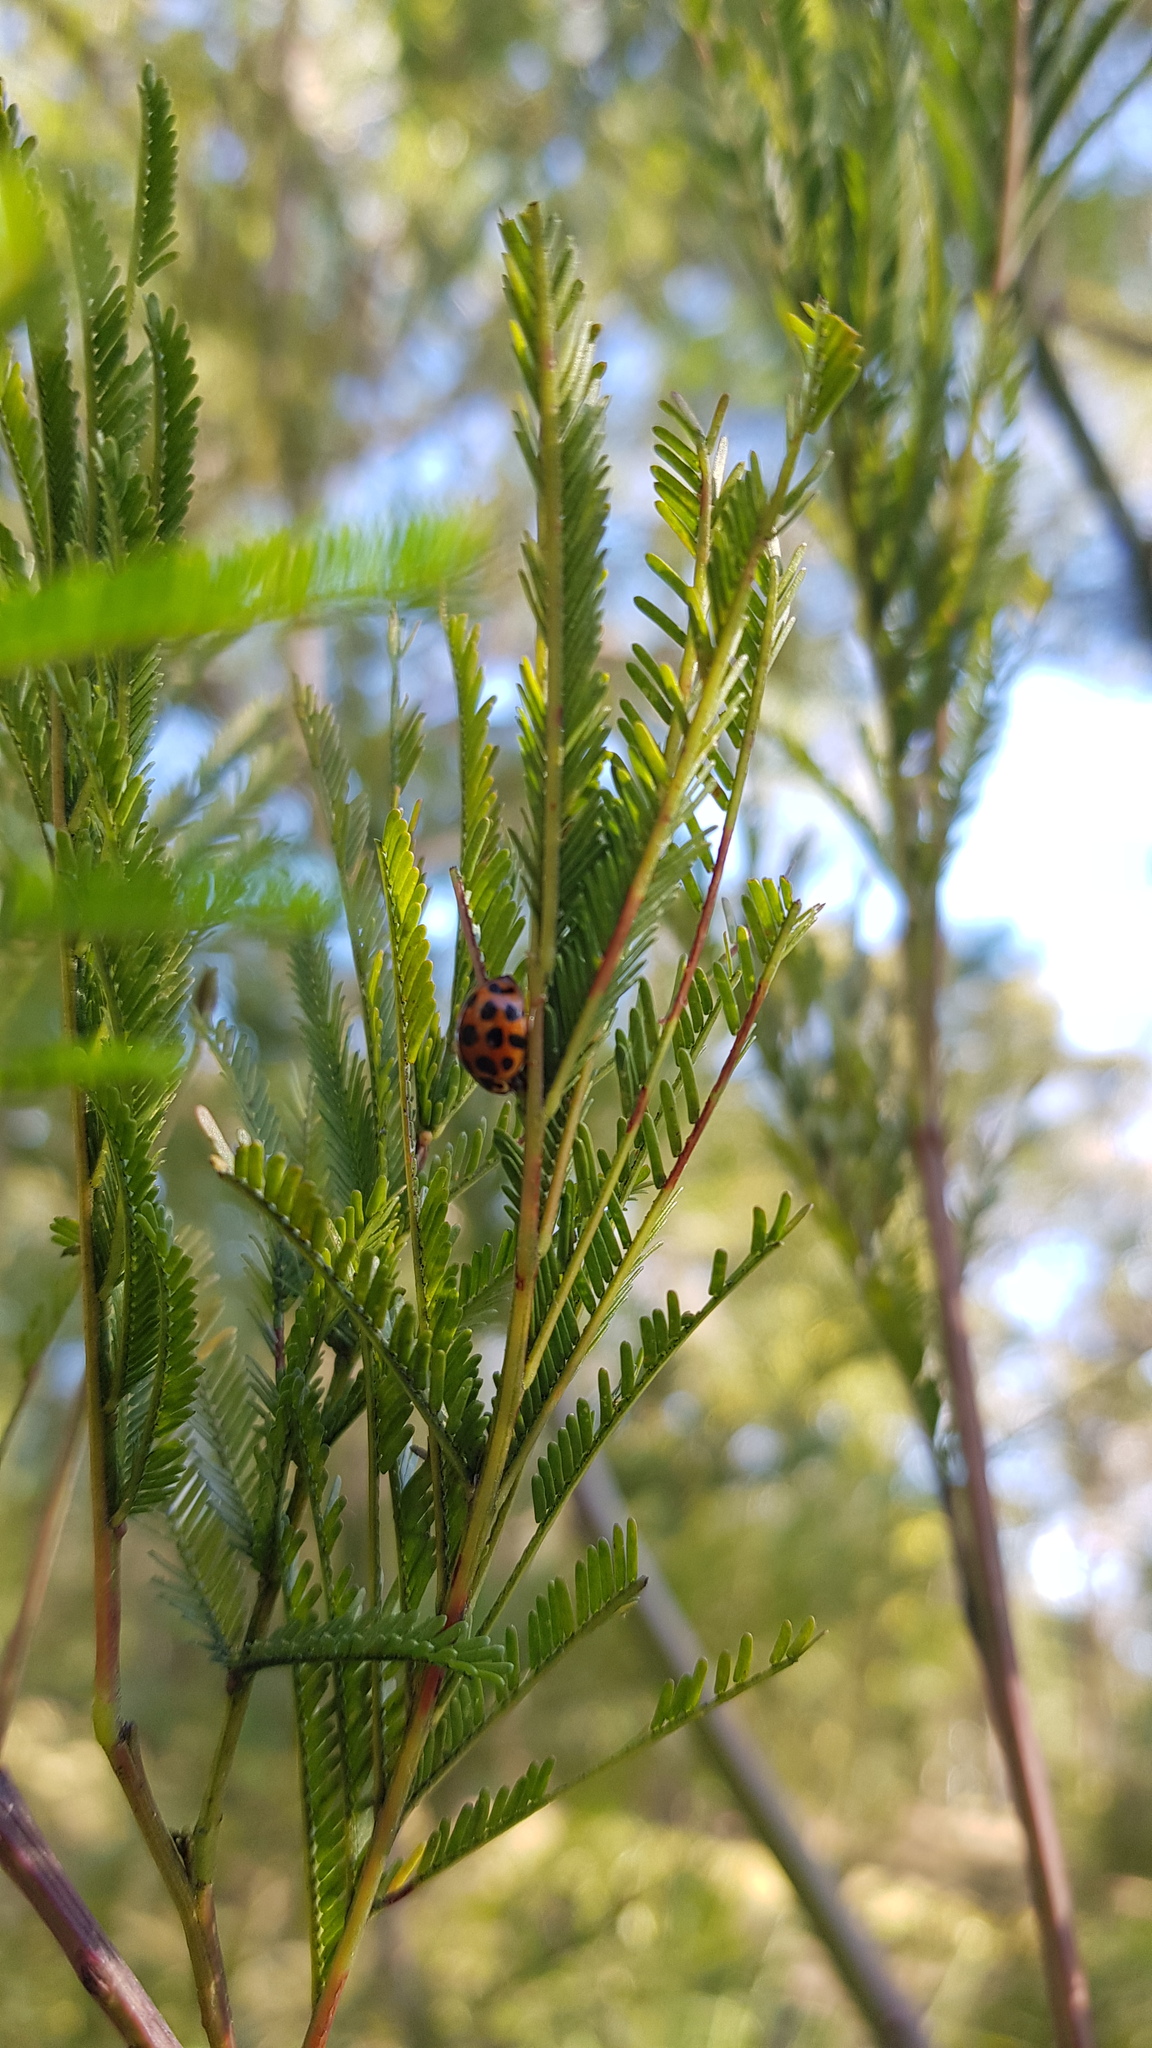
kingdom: Animalia
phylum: Arthropoda
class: Insecta
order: Coleoptera
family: Coccinellidae
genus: Harmonia
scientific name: Harmonia conformis
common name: Common spotted ladybird beetle
